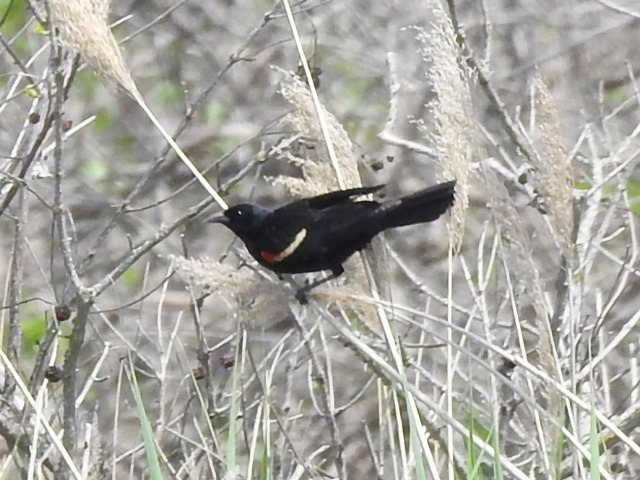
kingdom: Animalia
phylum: Chordata
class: Aves
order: Passeriformes
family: Icteridae
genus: Agelaius
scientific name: Agelaius phoeniceus
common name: Red-winged blackbird
